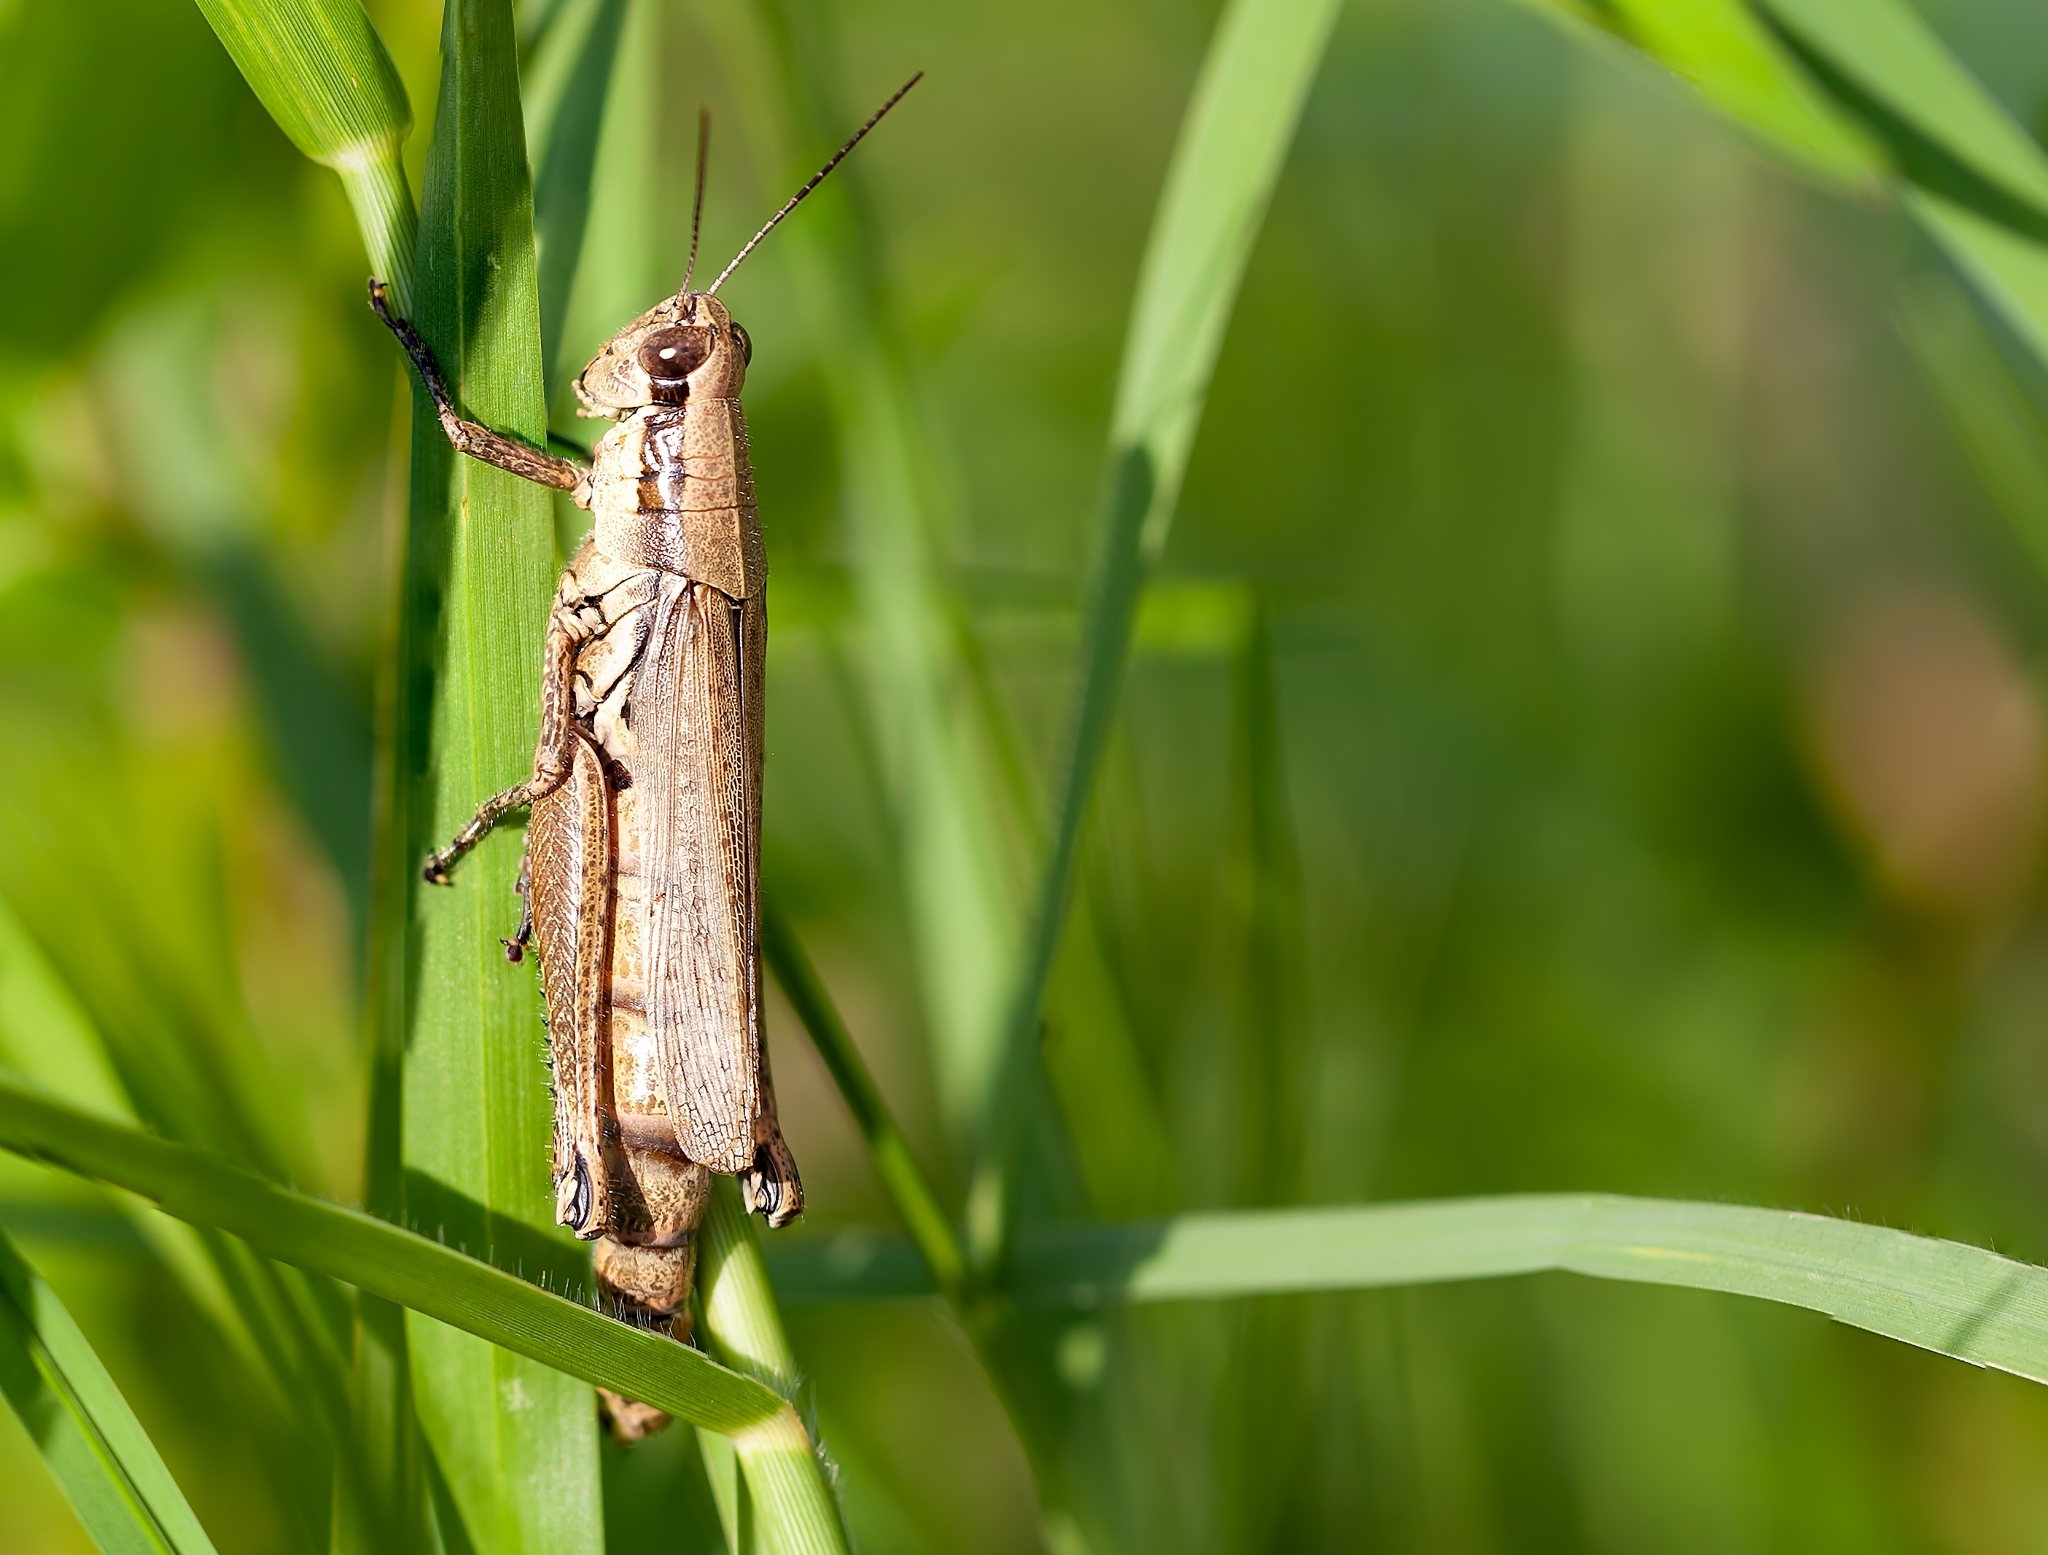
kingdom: Animalia
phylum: Arthropoda
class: Insecta
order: Orthoptera
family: Acrididae
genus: Paroxya
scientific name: Paroxya clavuligera
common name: Olive-green swamp grasshopper
